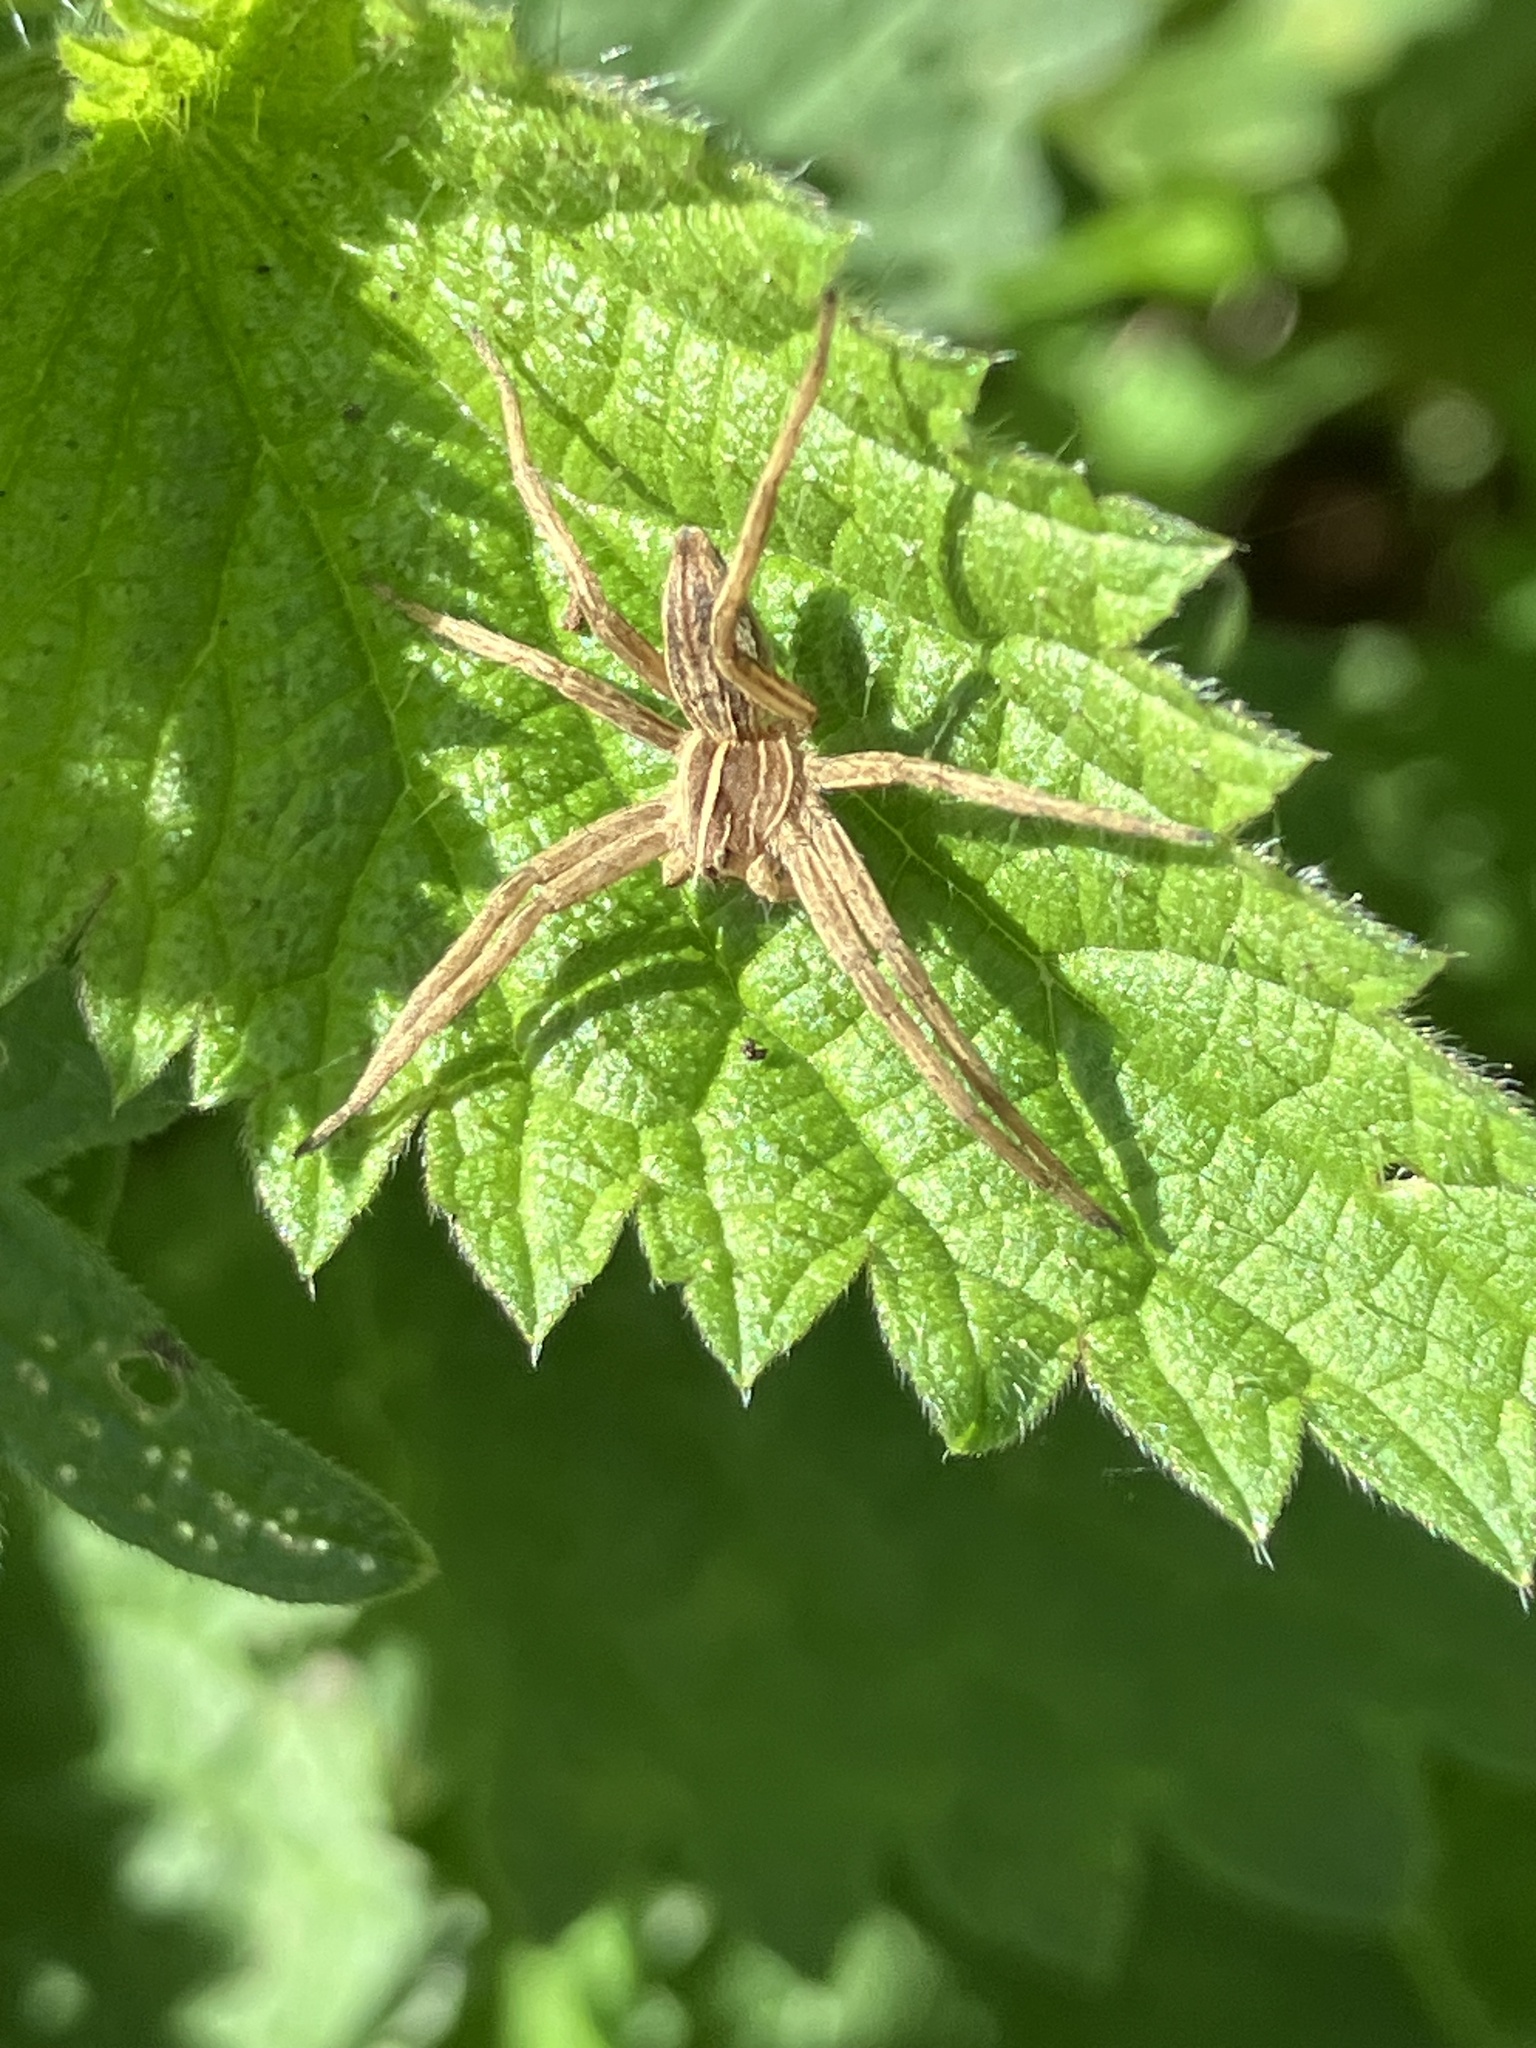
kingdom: Animalia
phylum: Arthropoda
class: Arachnida
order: Araneae
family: Pisauridae
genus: Pisaura
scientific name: Pisaura mirabilis
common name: Tent spider
